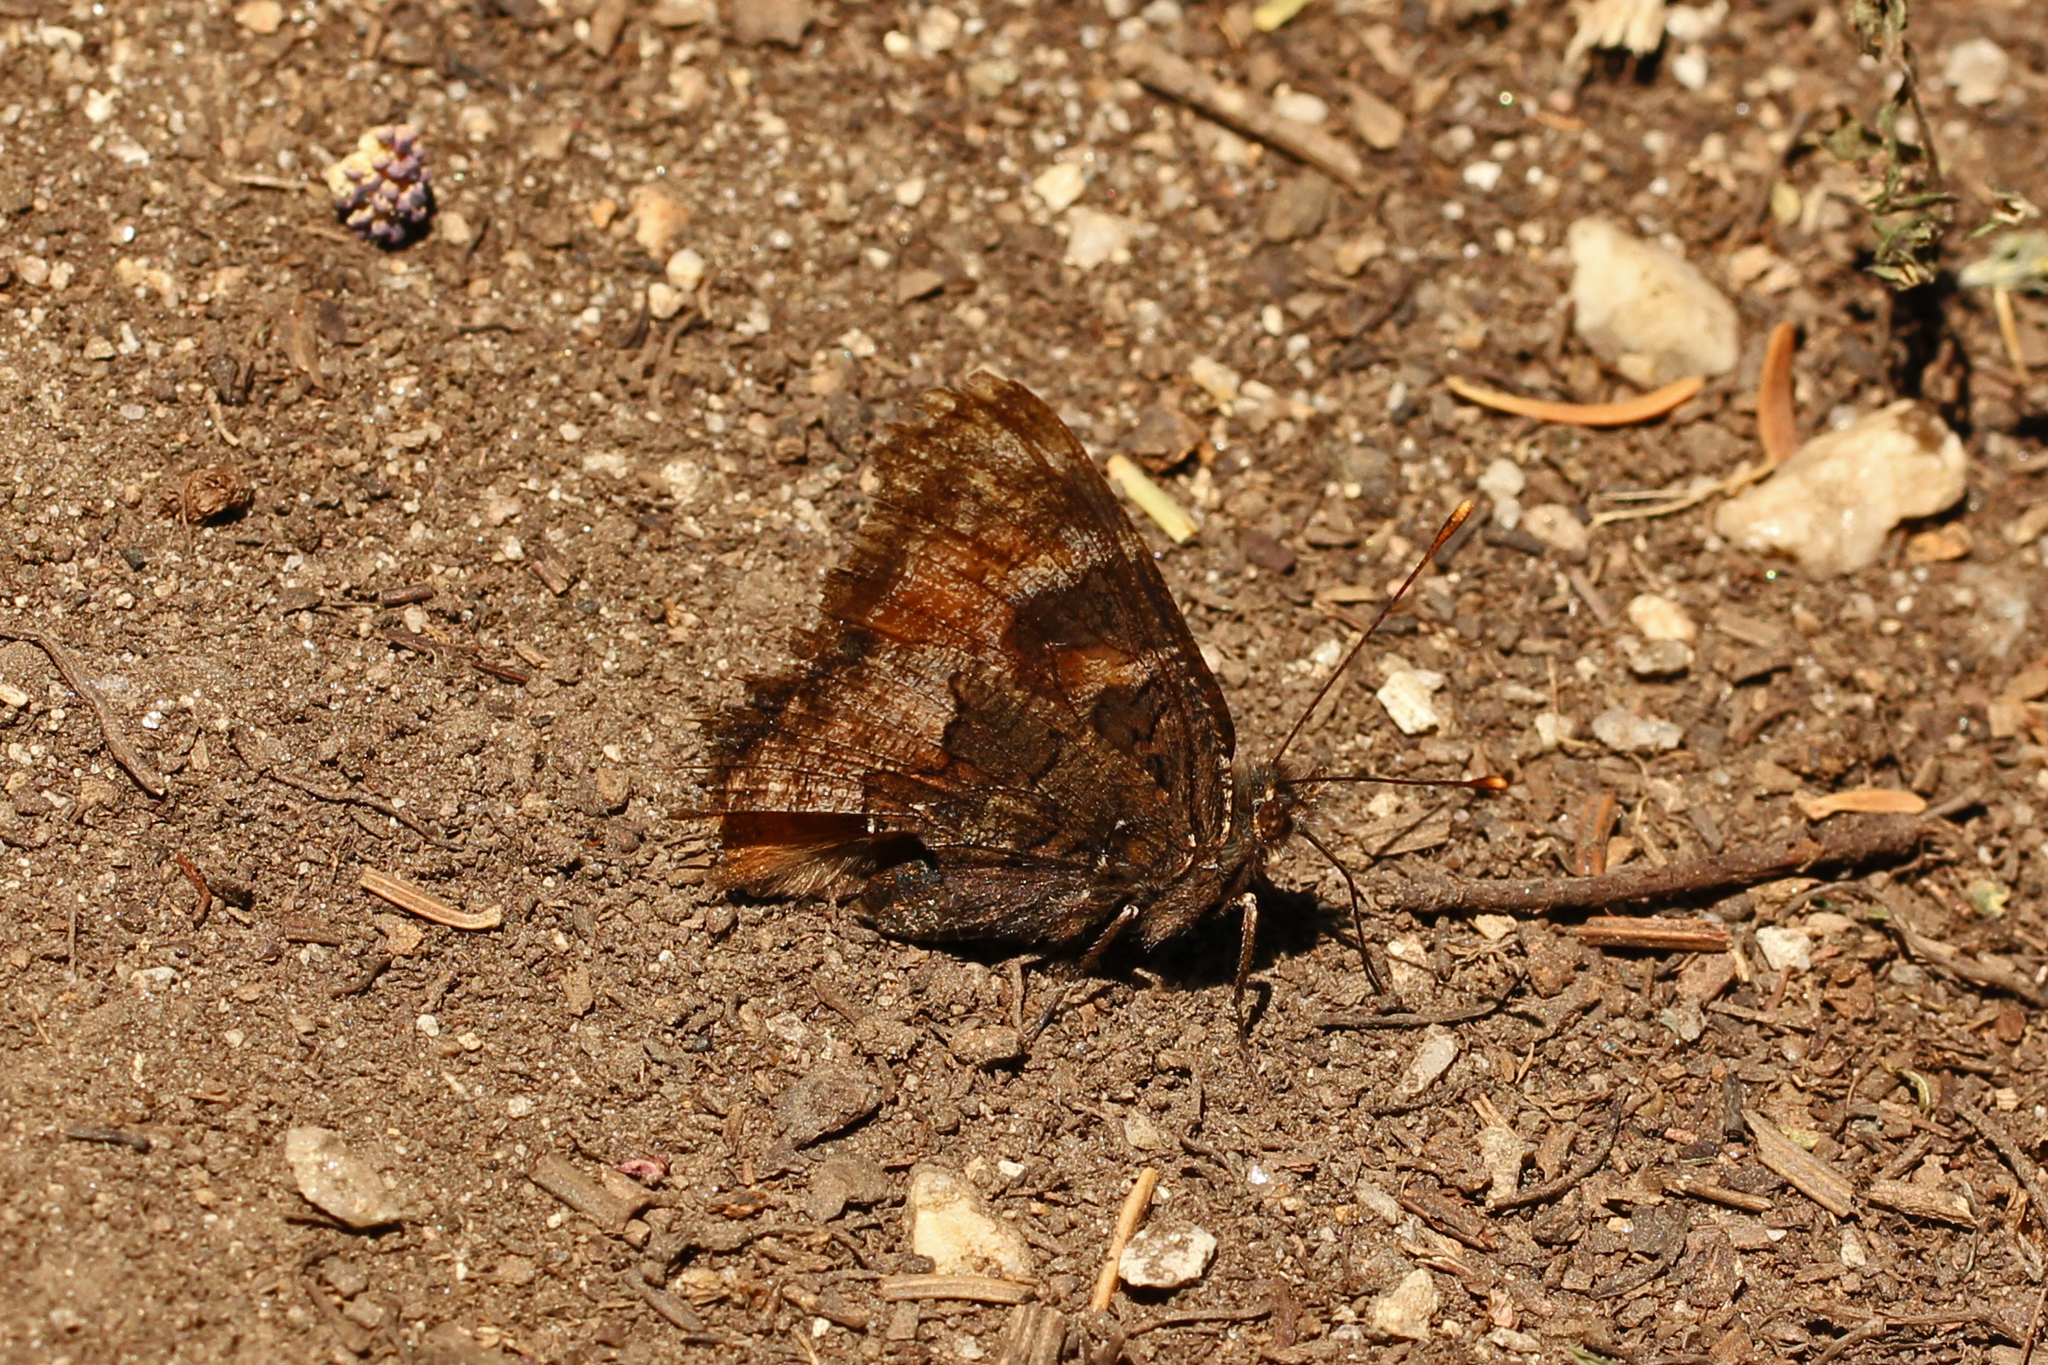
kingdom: Animalia
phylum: Arthropoda
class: Insecta
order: Lepidoptera
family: Nymphalidae
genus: Nymphalis
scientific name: Nymphalis californica
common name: California tortoiseshell
